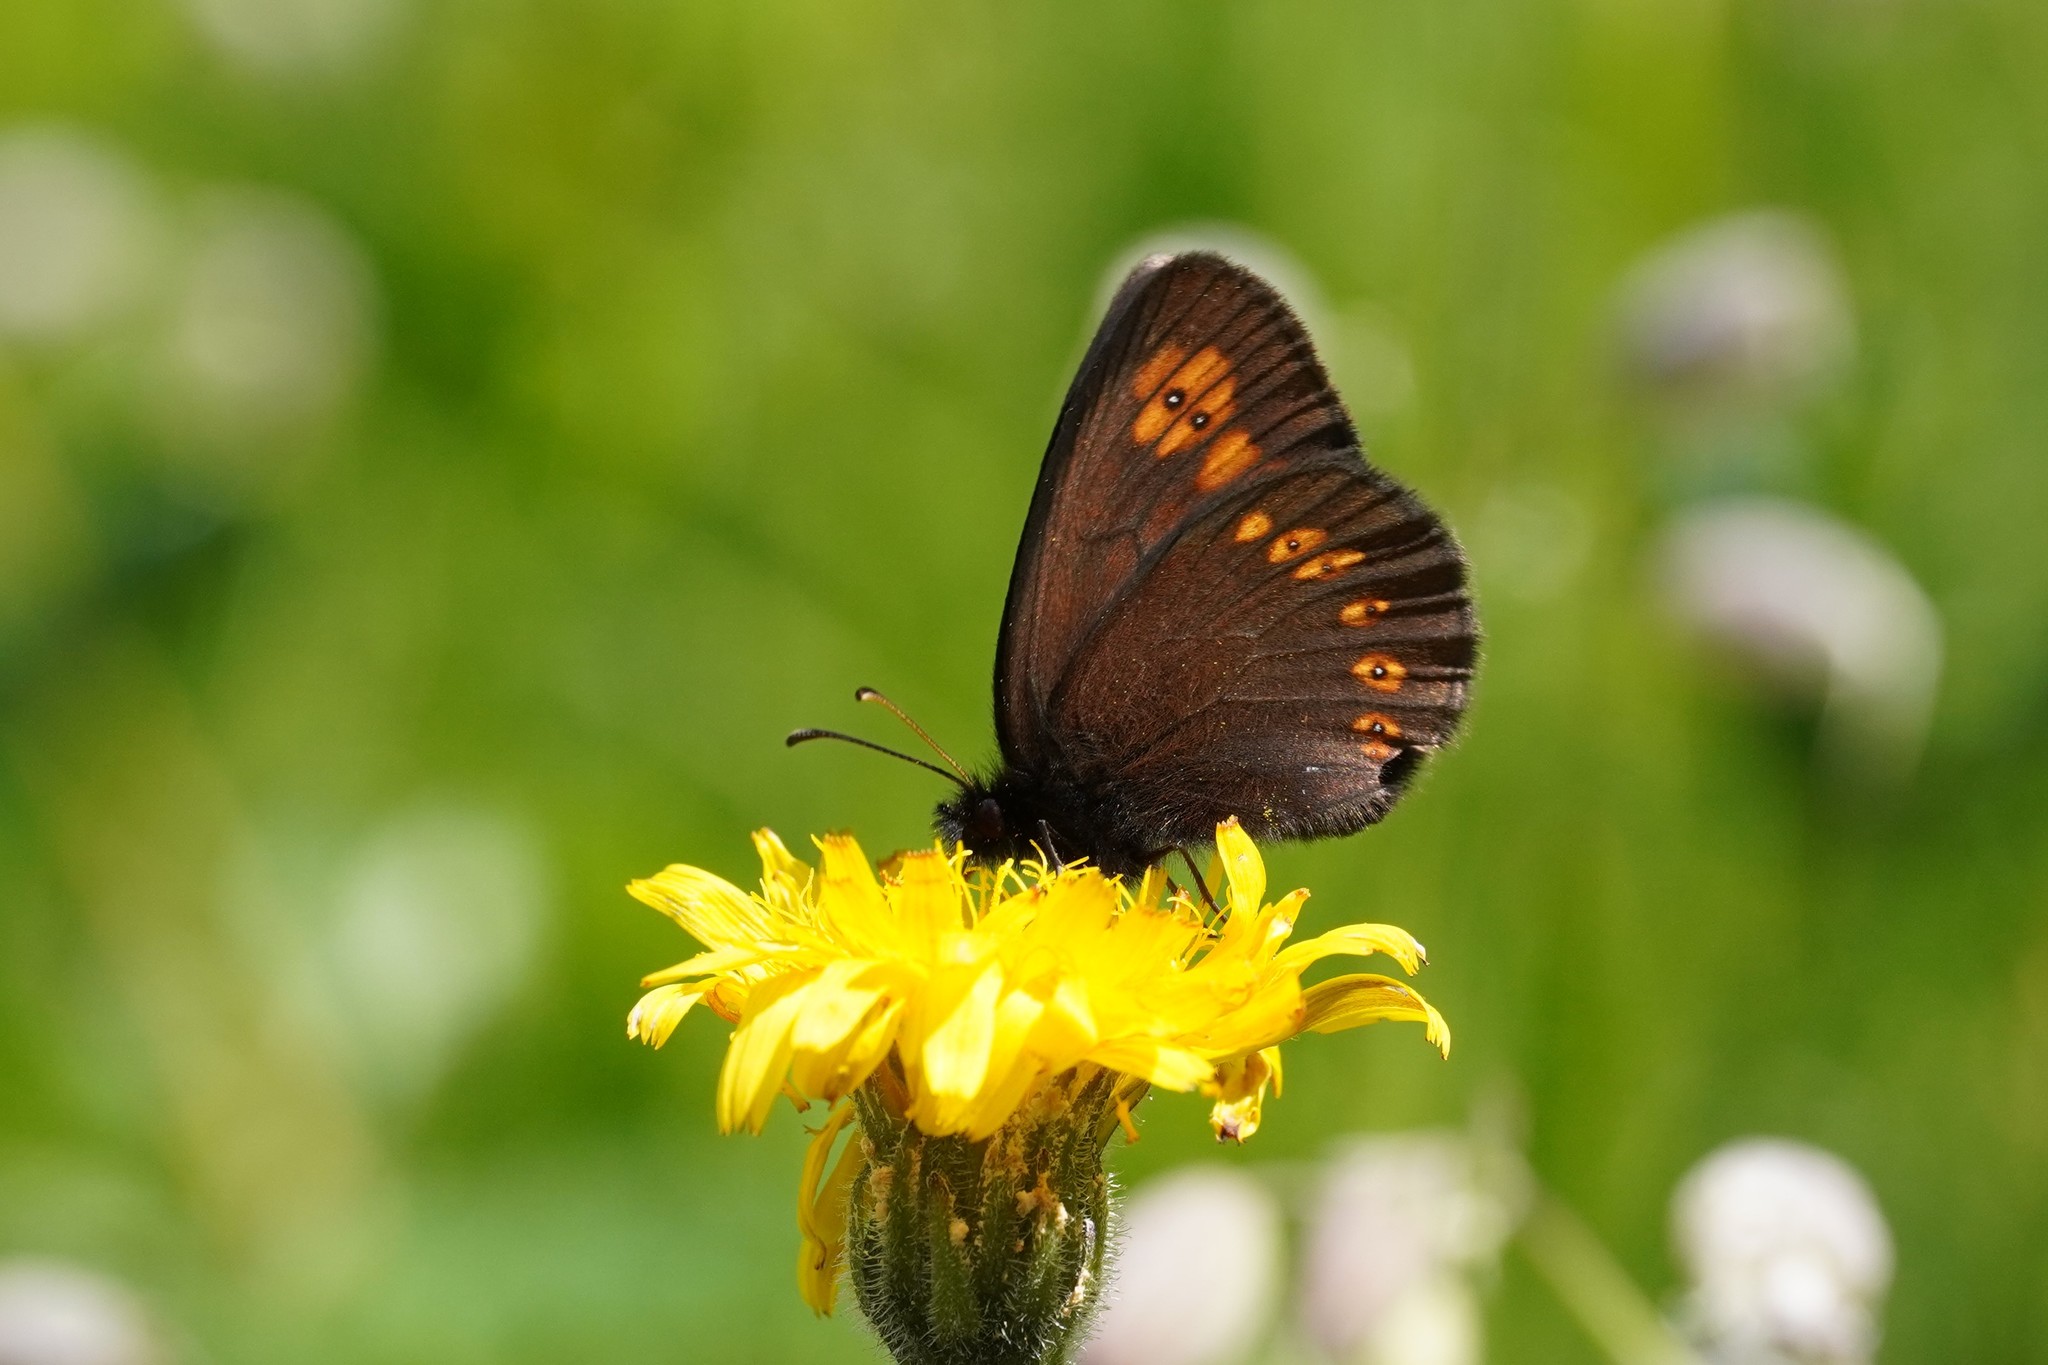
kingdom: Animalia
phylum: Arthropoda
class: Insecta
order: Lepidoptera
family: Nymphalidae
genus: Erebia
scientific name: Erebia alberganus
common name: Almond-eyed ringlet
